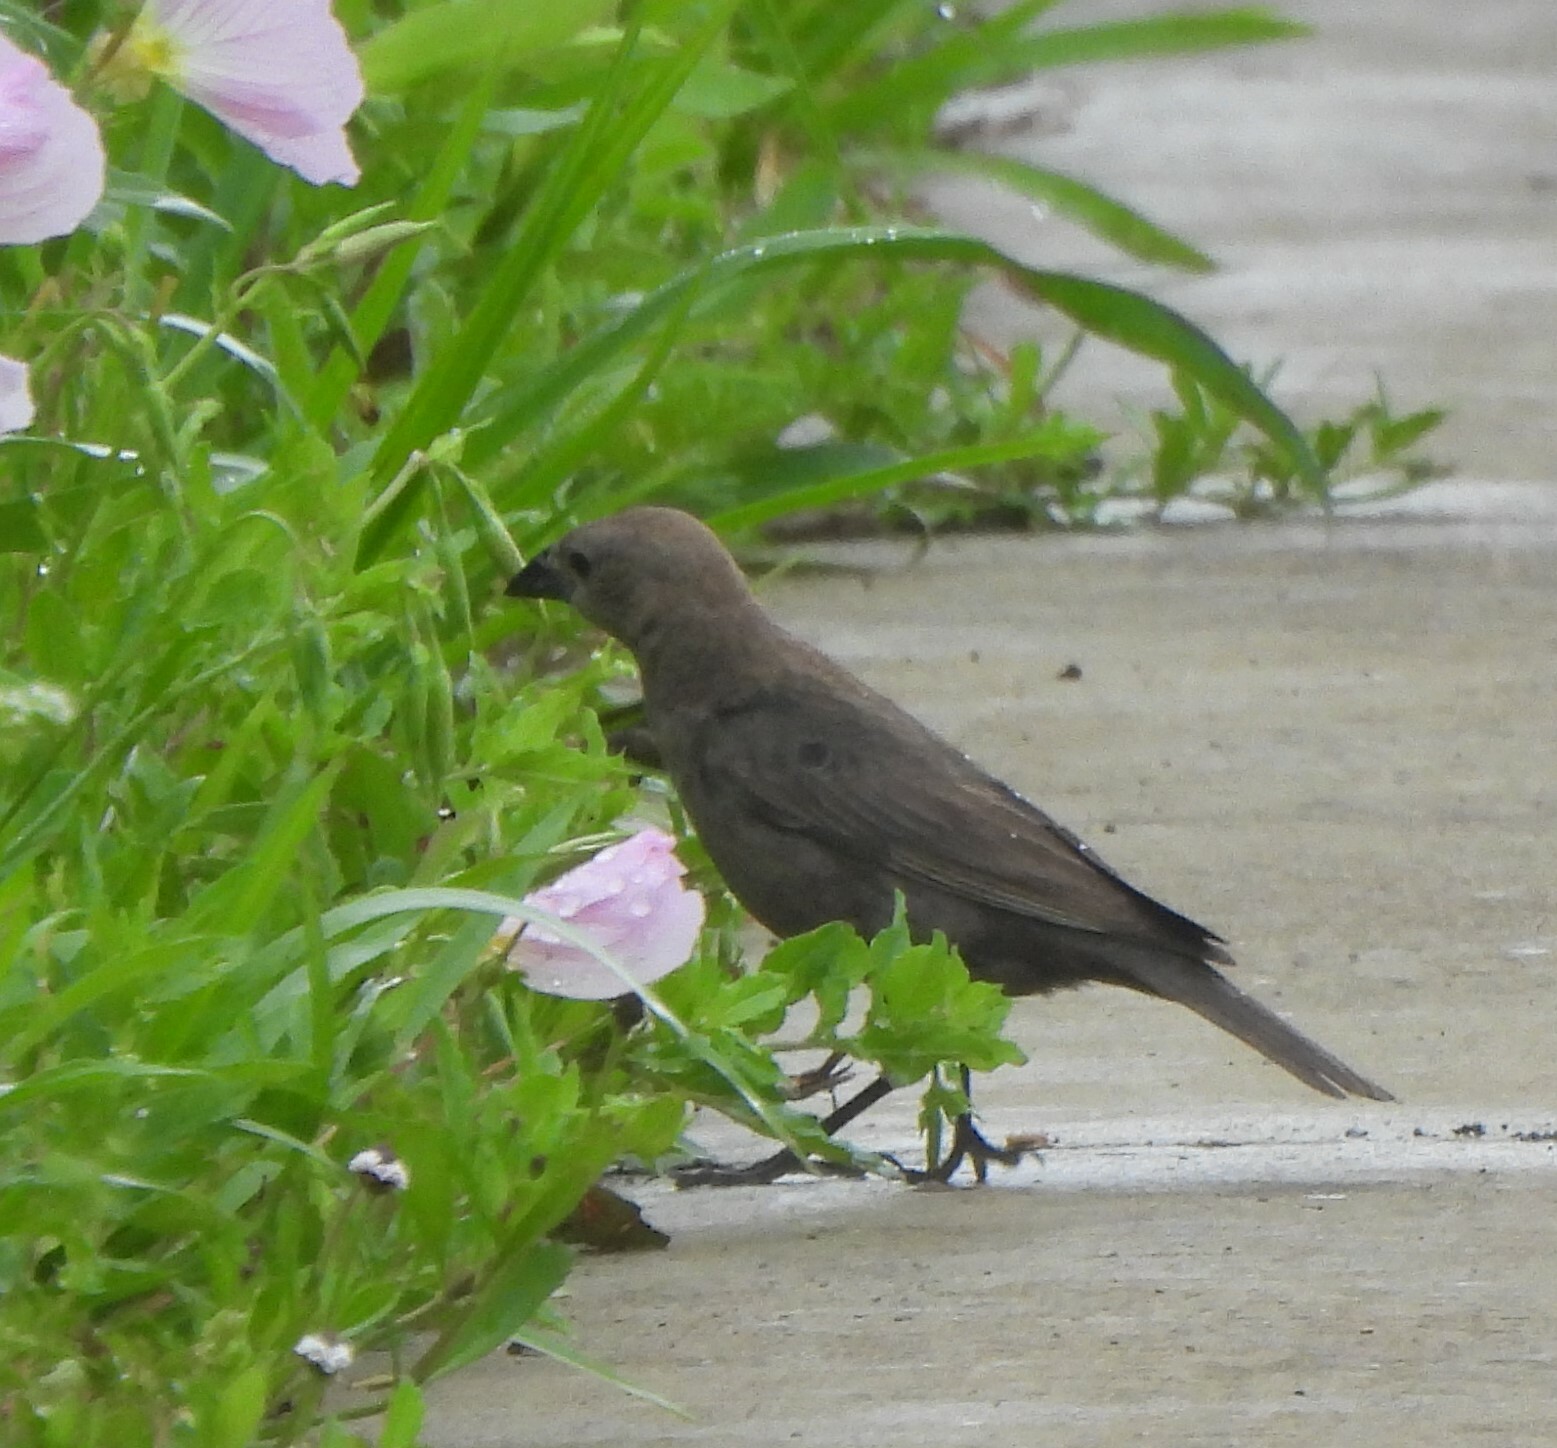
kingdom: Animalia
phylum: Chordata
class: Aves
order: Passeriformes
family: Icteridae
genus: Molothrus
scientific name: Molothrus ater
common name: Brown-headed cowbird
